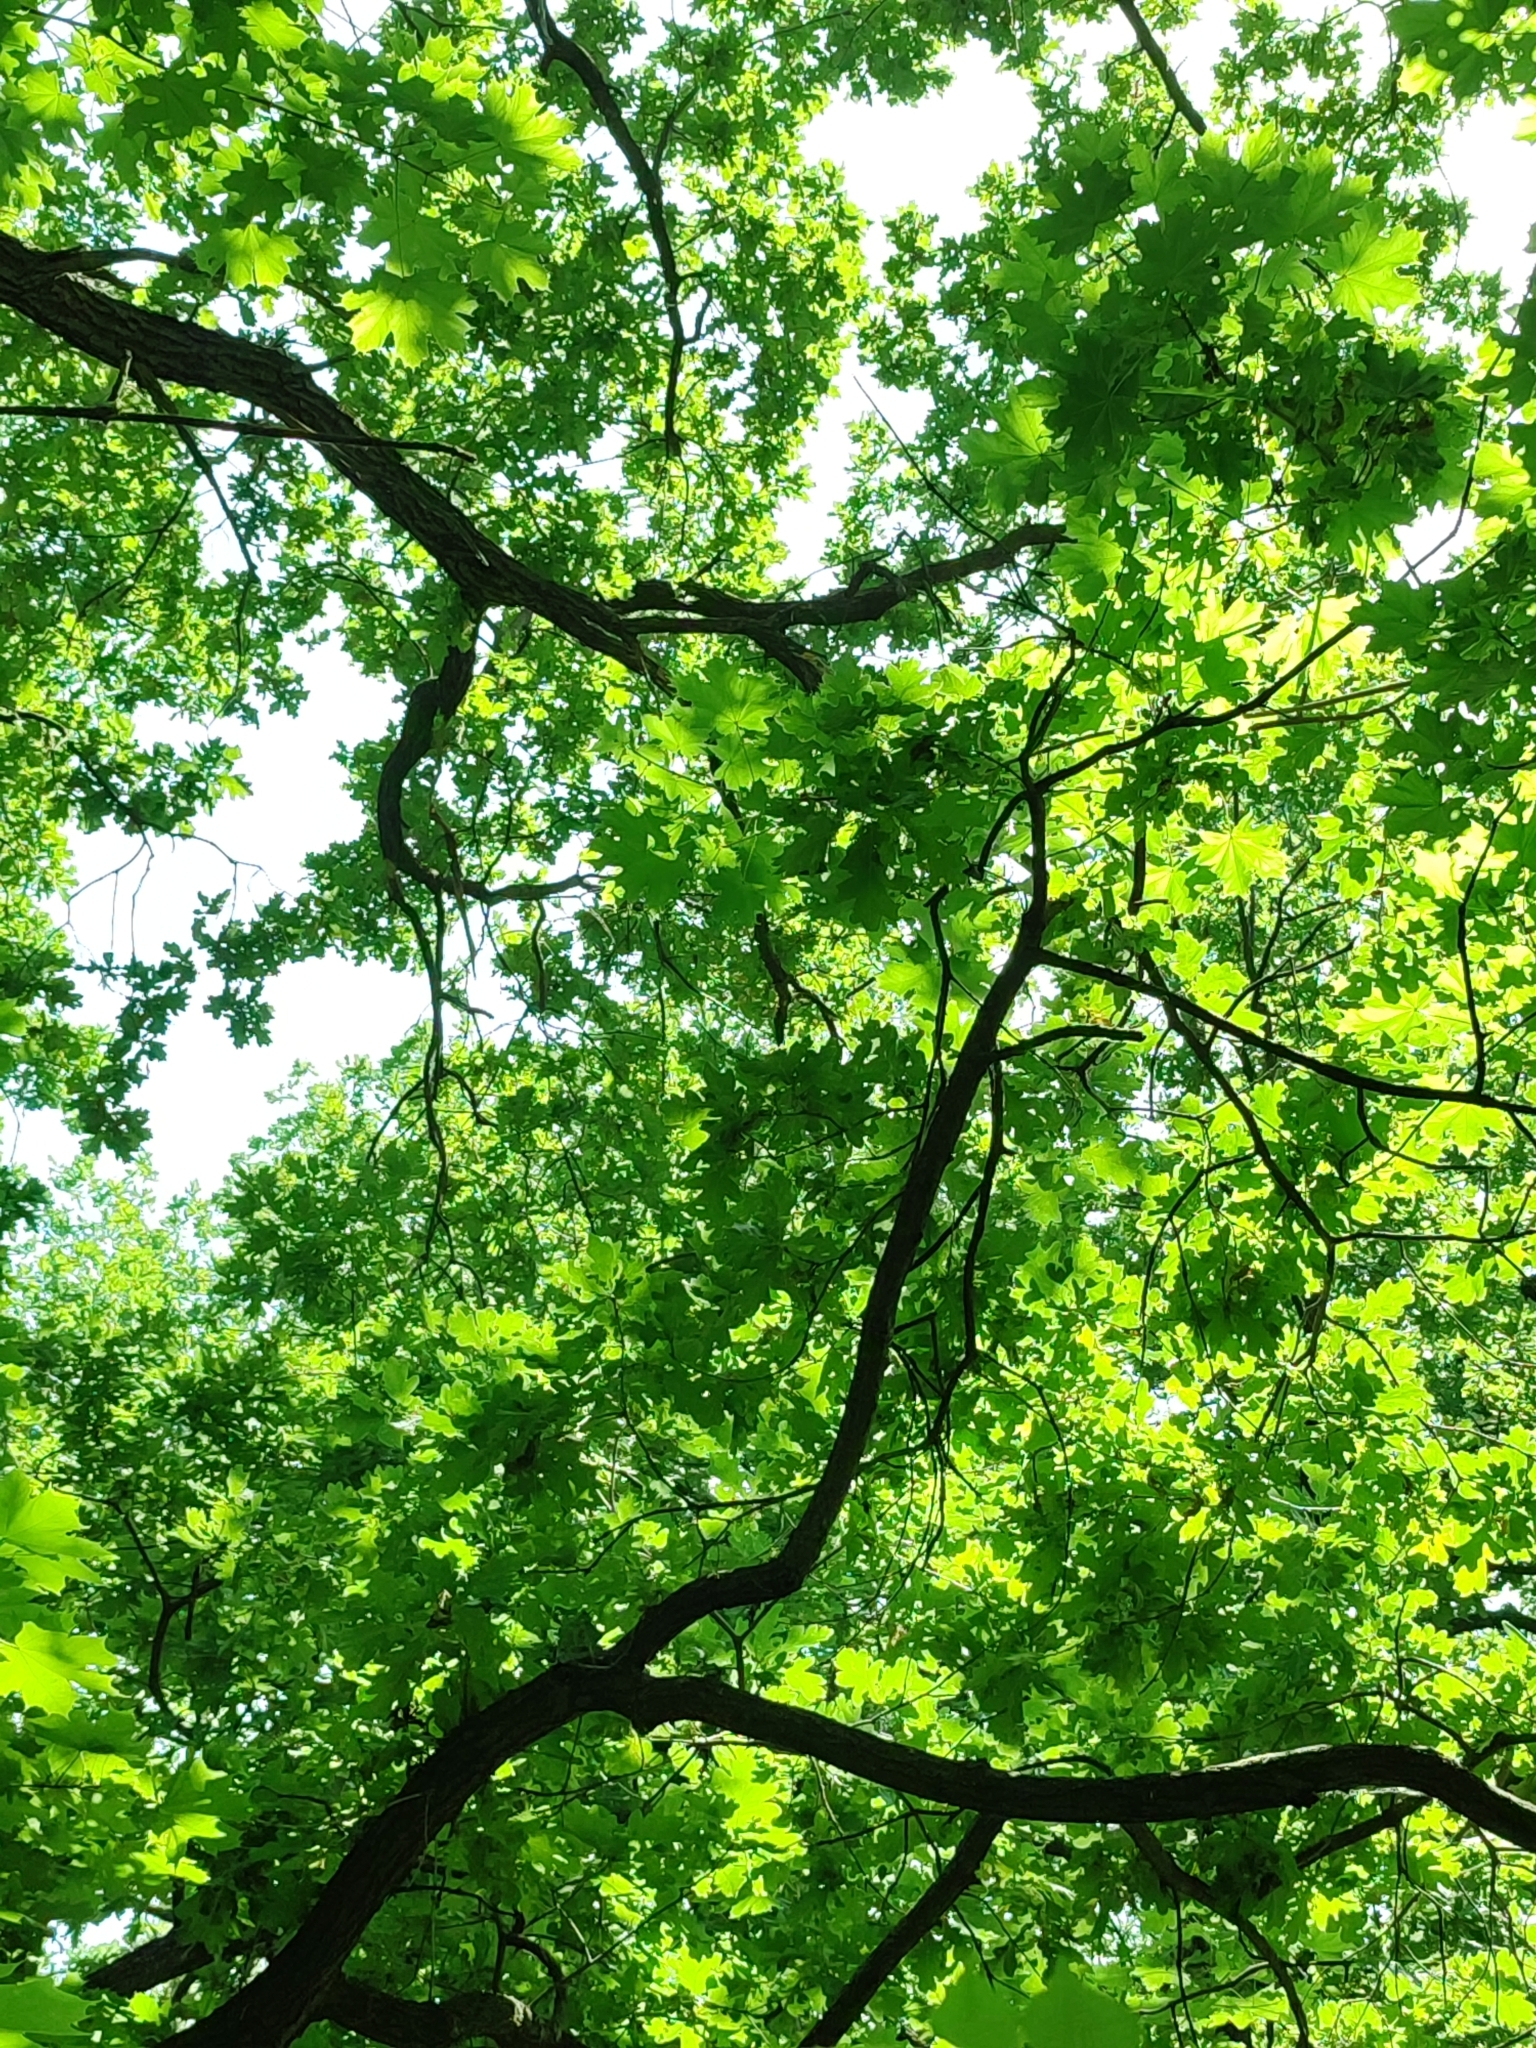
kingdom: Plantae
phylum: Tracheophyta
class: Magnoliopsida
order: Fagales
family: Fagaceae
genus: Quercus
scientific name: Quercus robur
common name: Pedunculate oak
